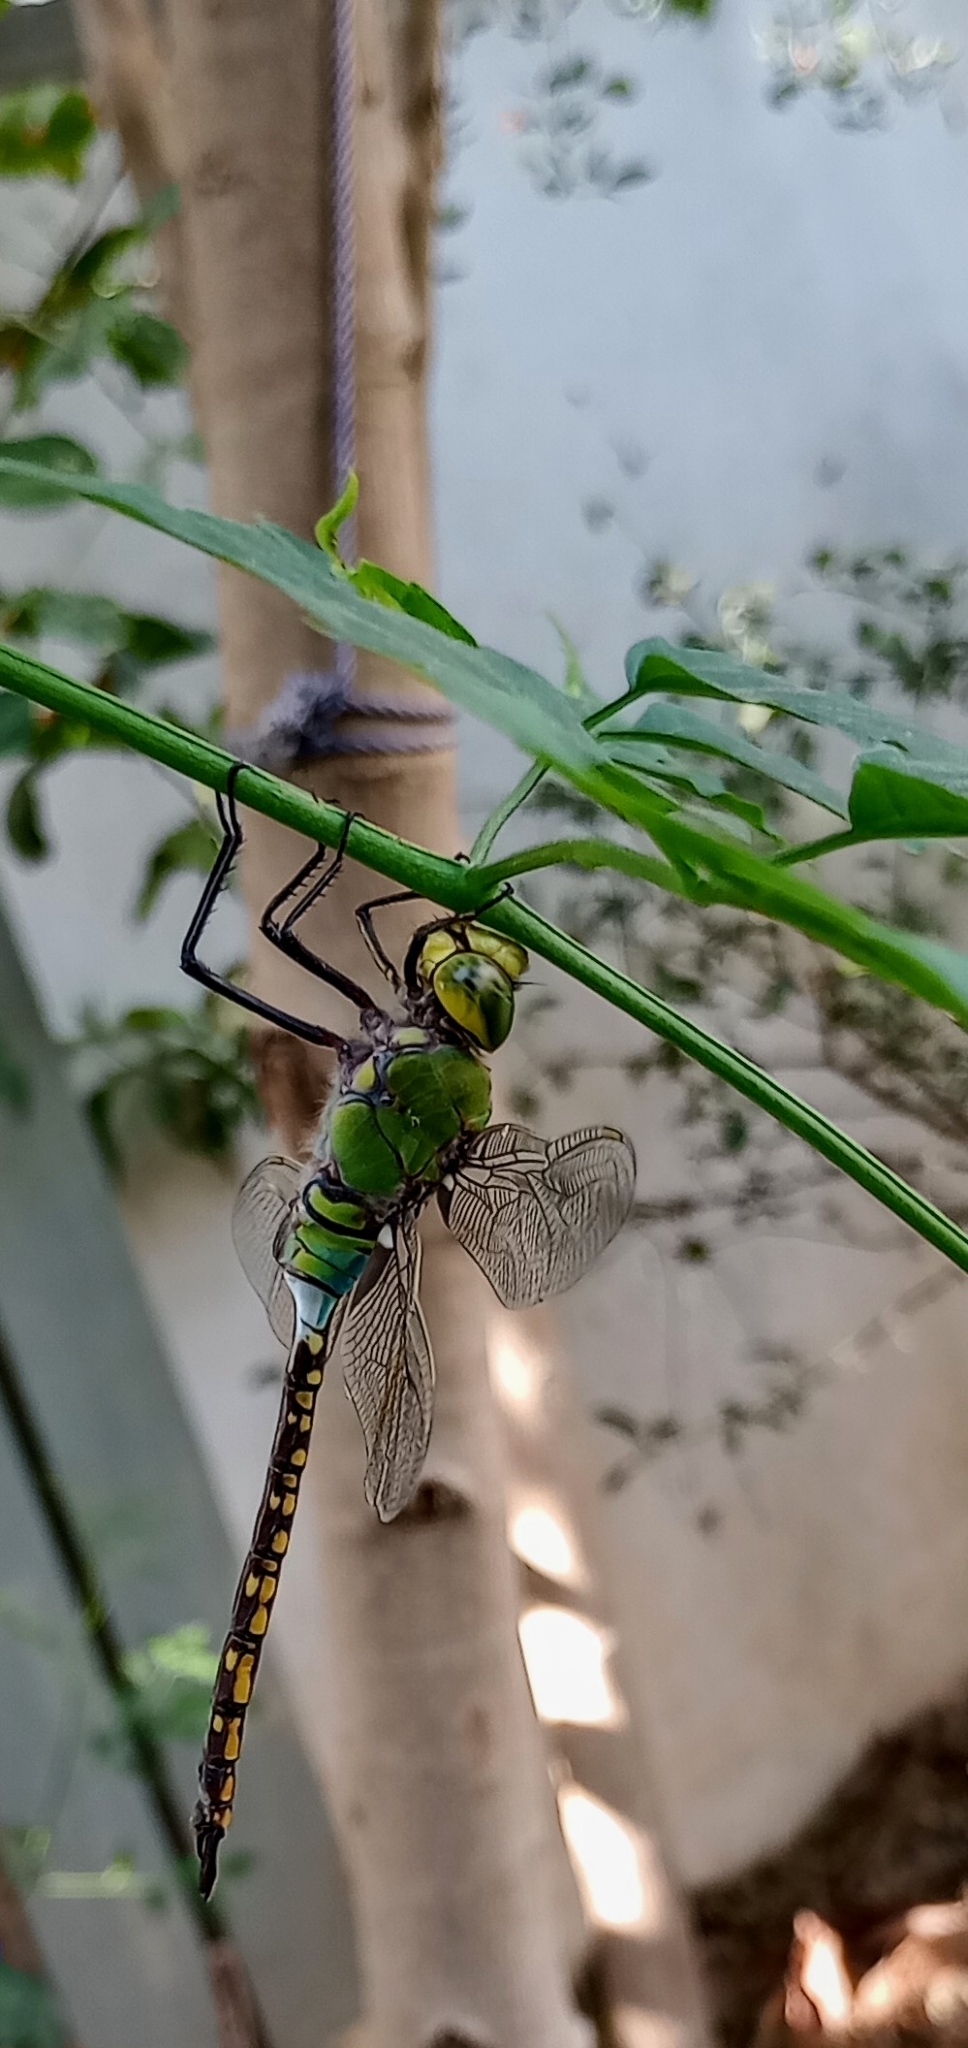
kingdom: Animalia
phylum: Arthropoda
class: Insecta
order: Odonata
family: Aeshnidae
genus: Anax
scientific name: Anax indicus
